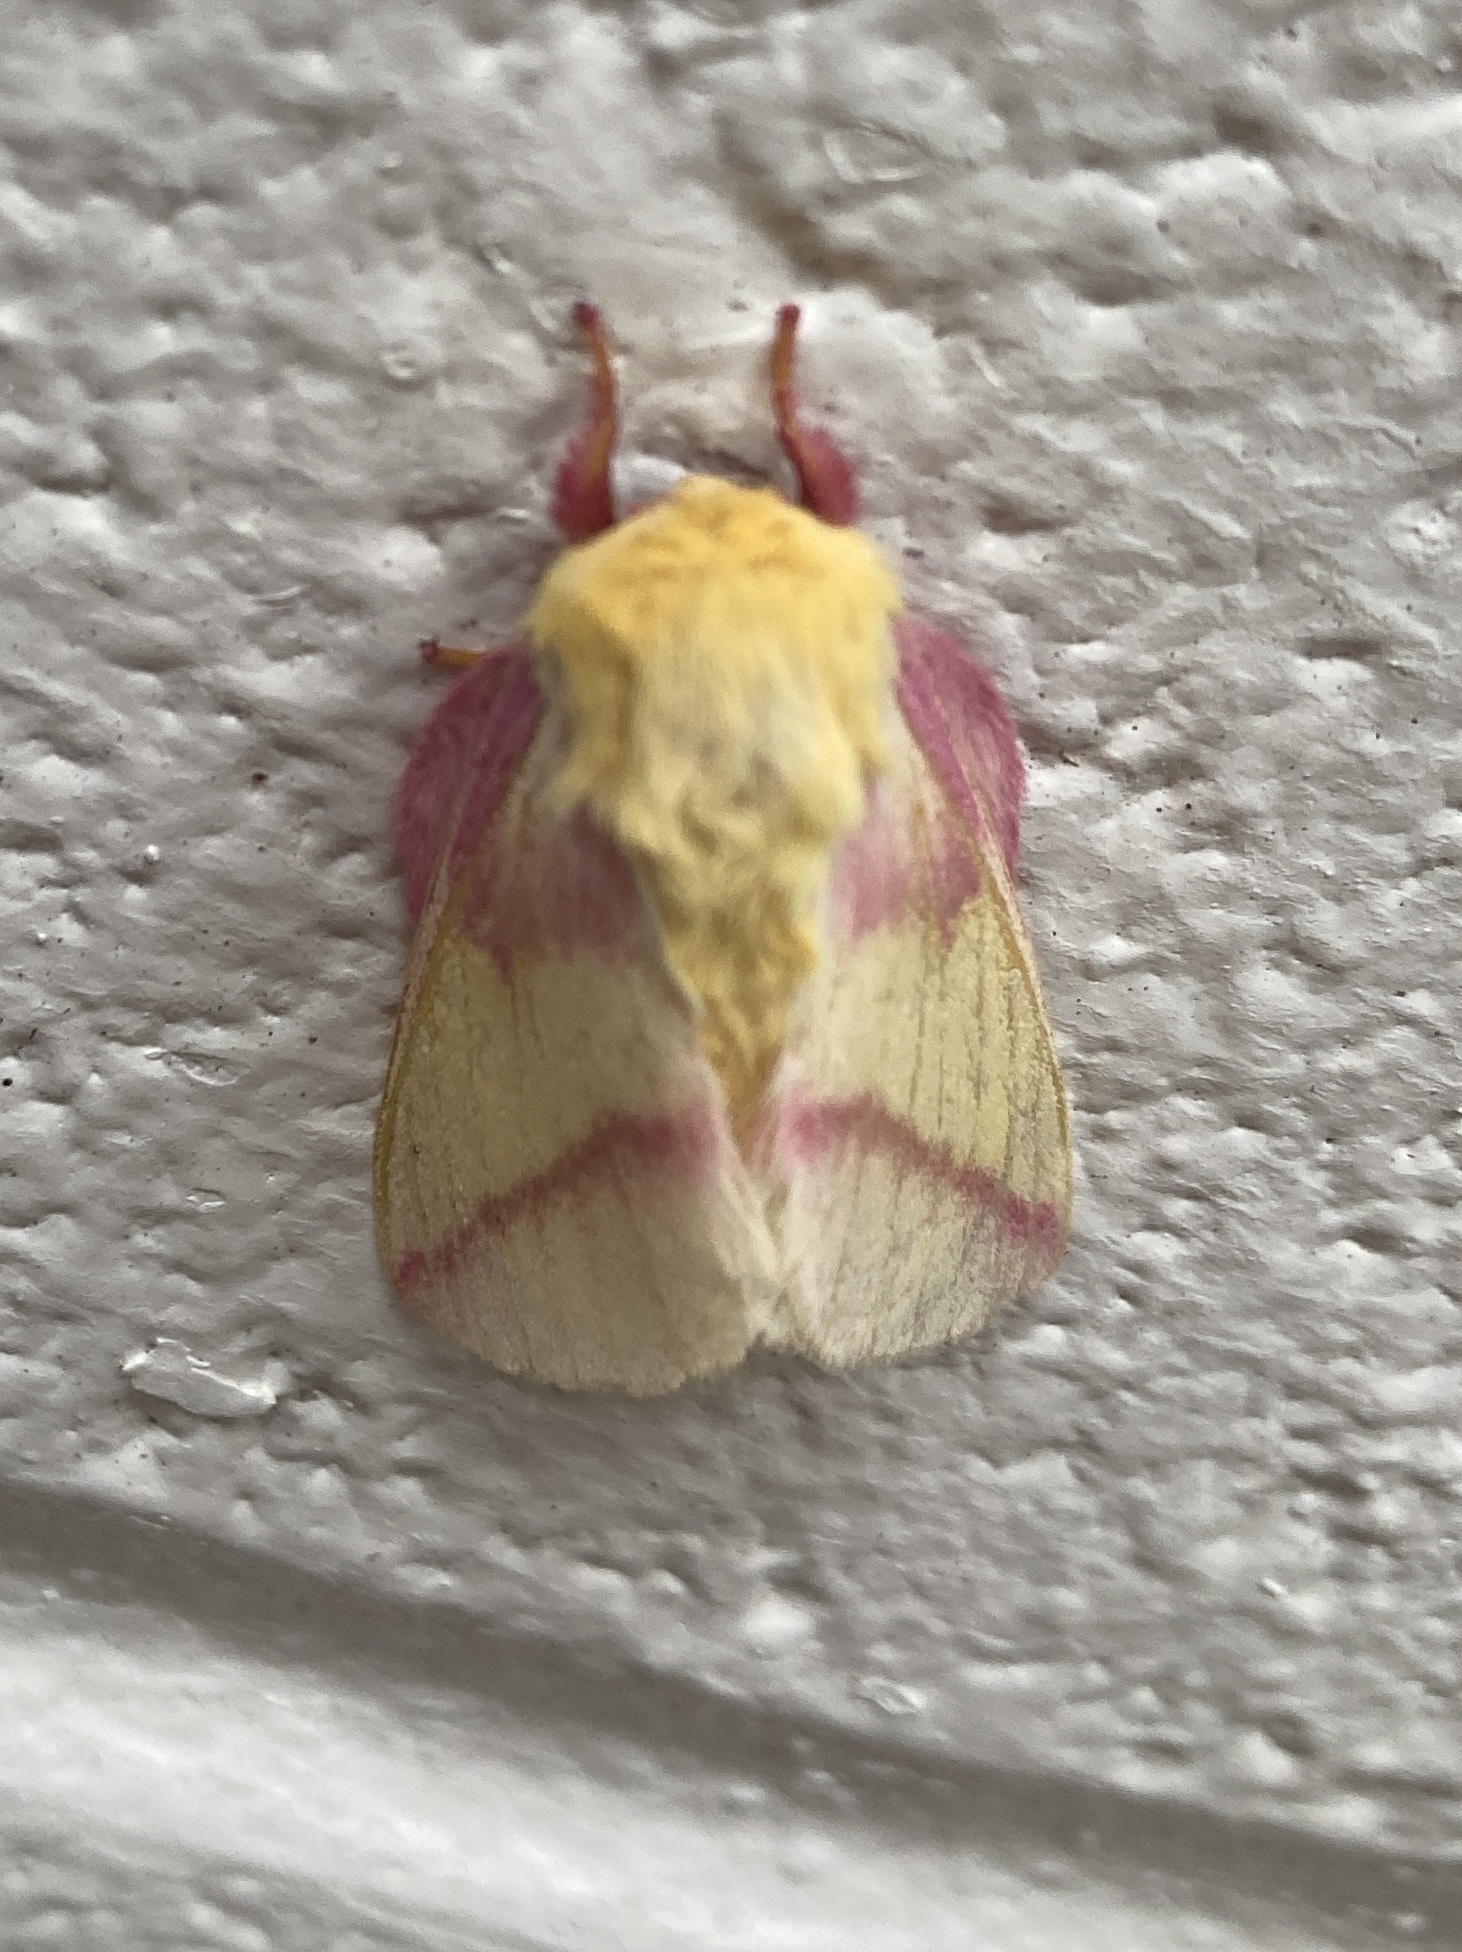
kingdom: Animalia
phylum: Arthropoda
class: Insecta
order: Lepidoptera
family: Saturniidae
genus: Dryocampa
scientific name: Dryocampa rubicunda
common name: Rosy maple moth
